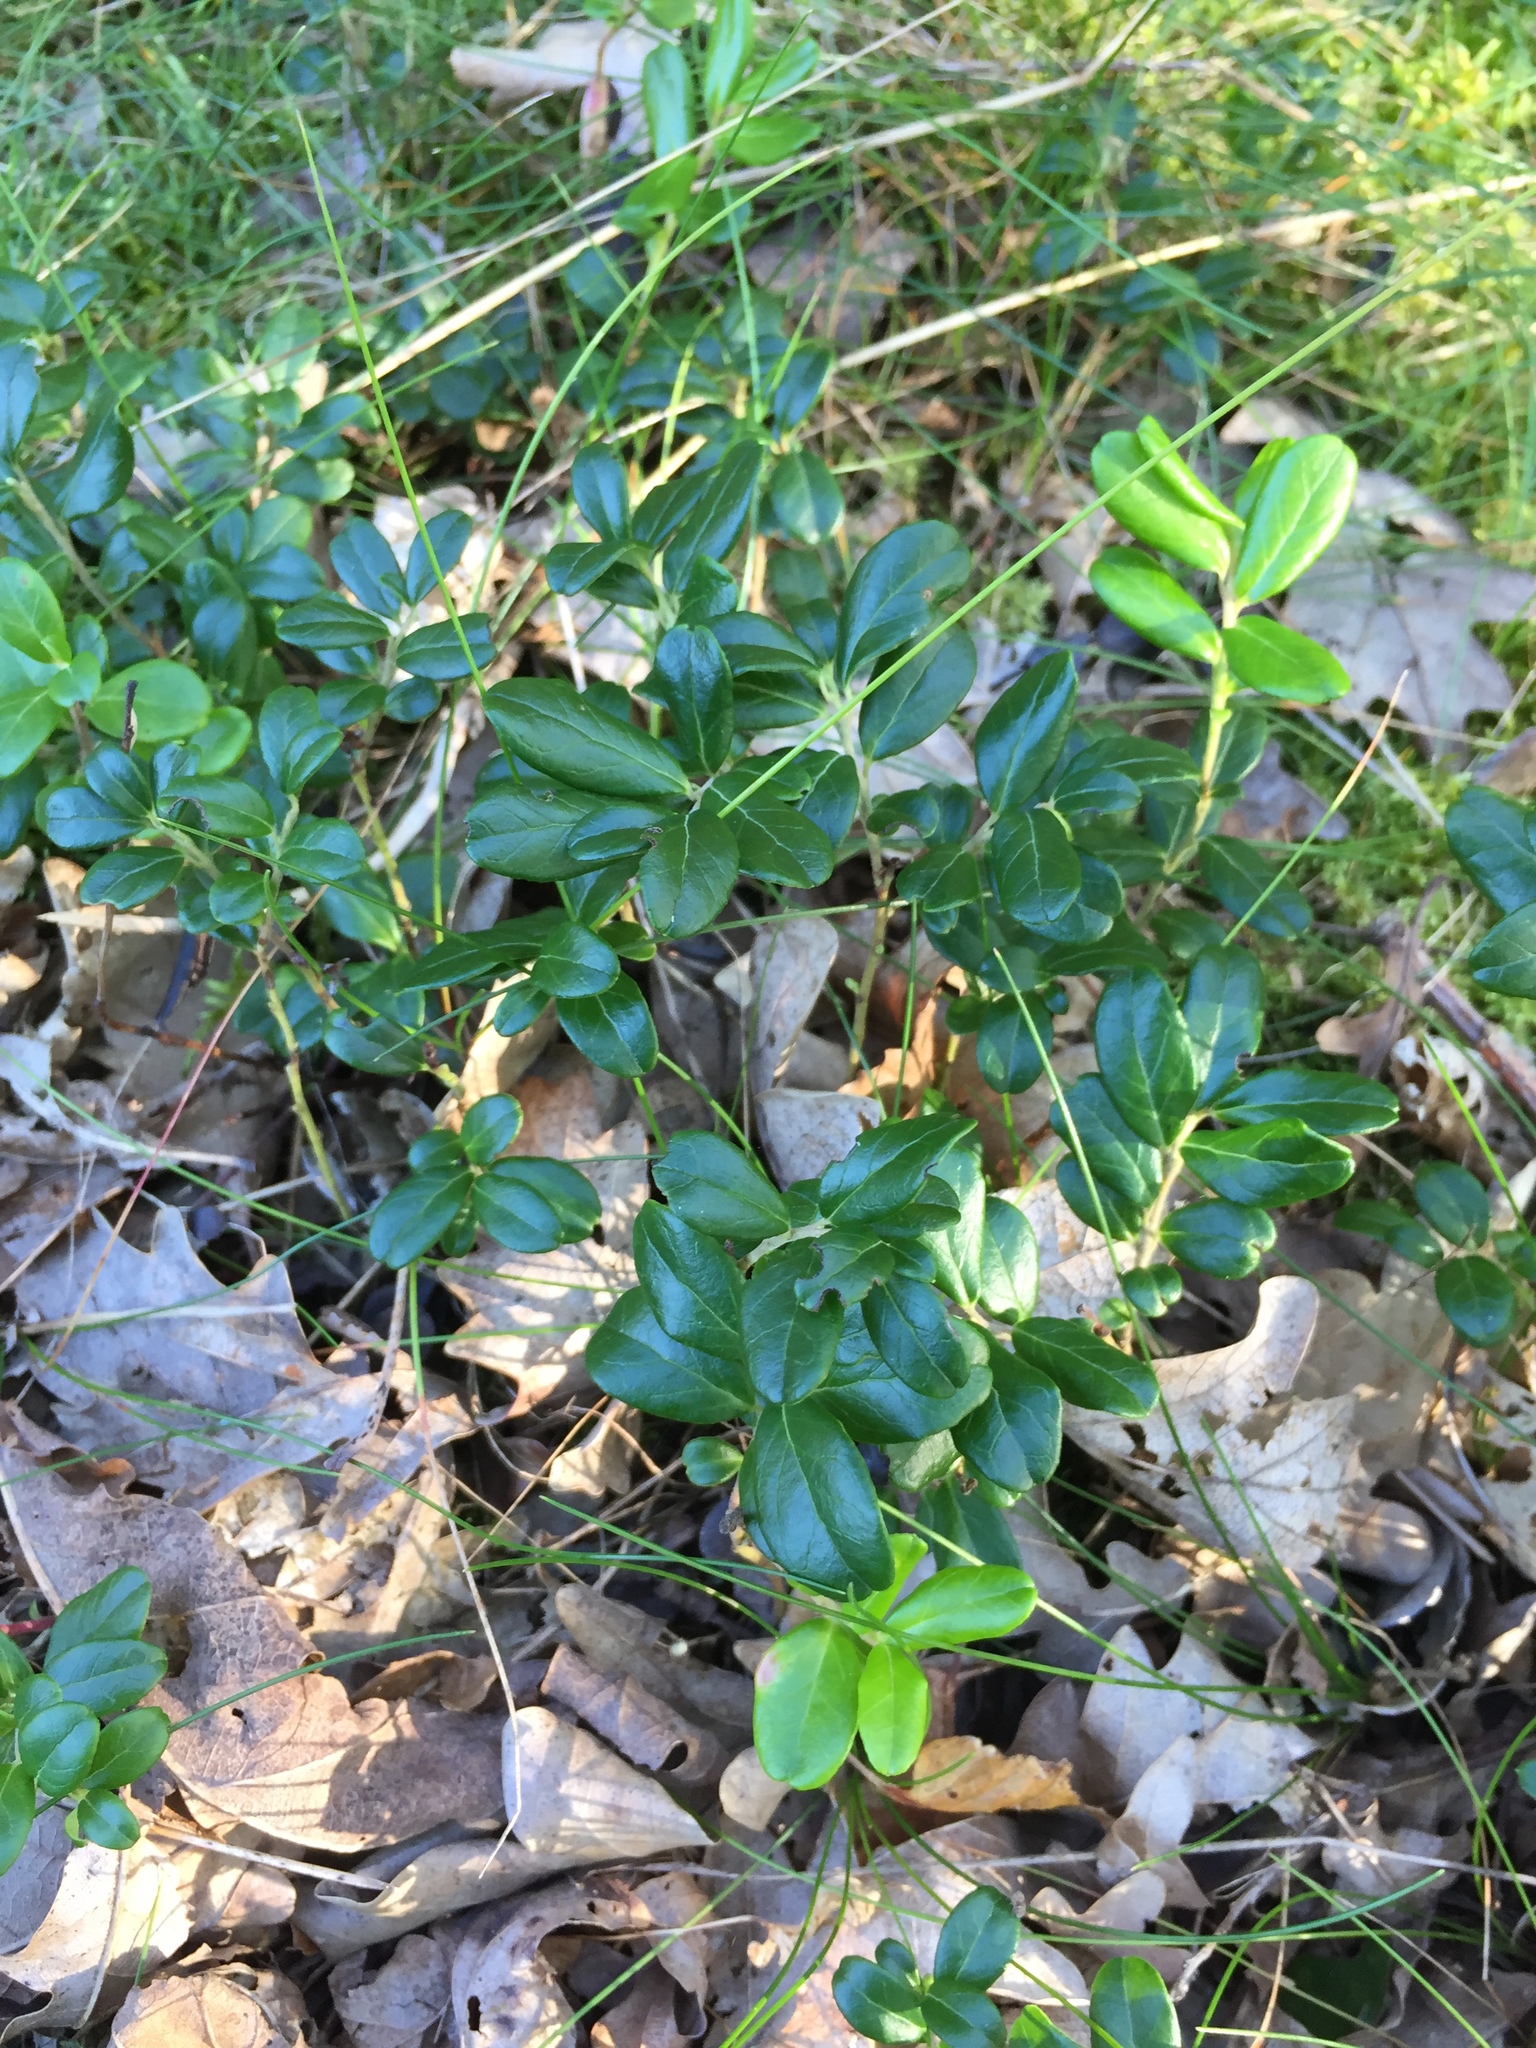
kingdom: Plantae
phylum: Tracheophyta
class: Magnoliopsida
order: Ericales
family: Ericaceae
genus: Vaccinium
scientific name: Vaccinium vitis-idaea
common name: Cowberry
